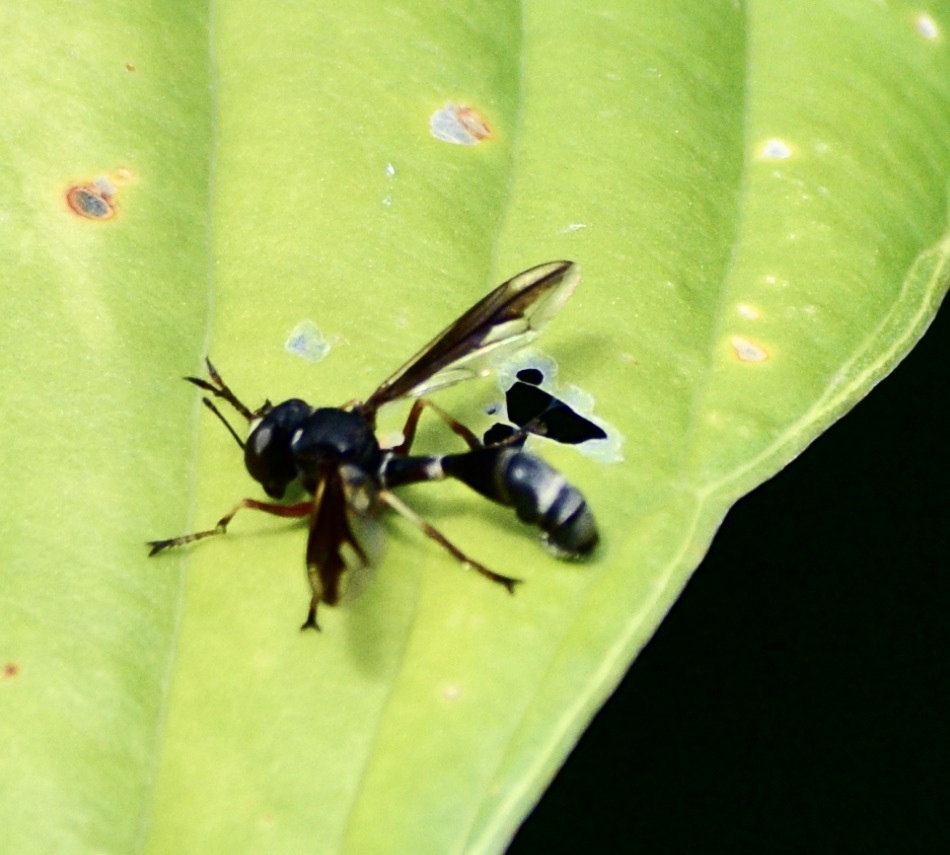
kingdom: Animalia
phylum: Arthropoda
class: Insecta
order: Diptera
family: Conopidae
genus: Physocephala
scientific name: Physocephala furcillata
